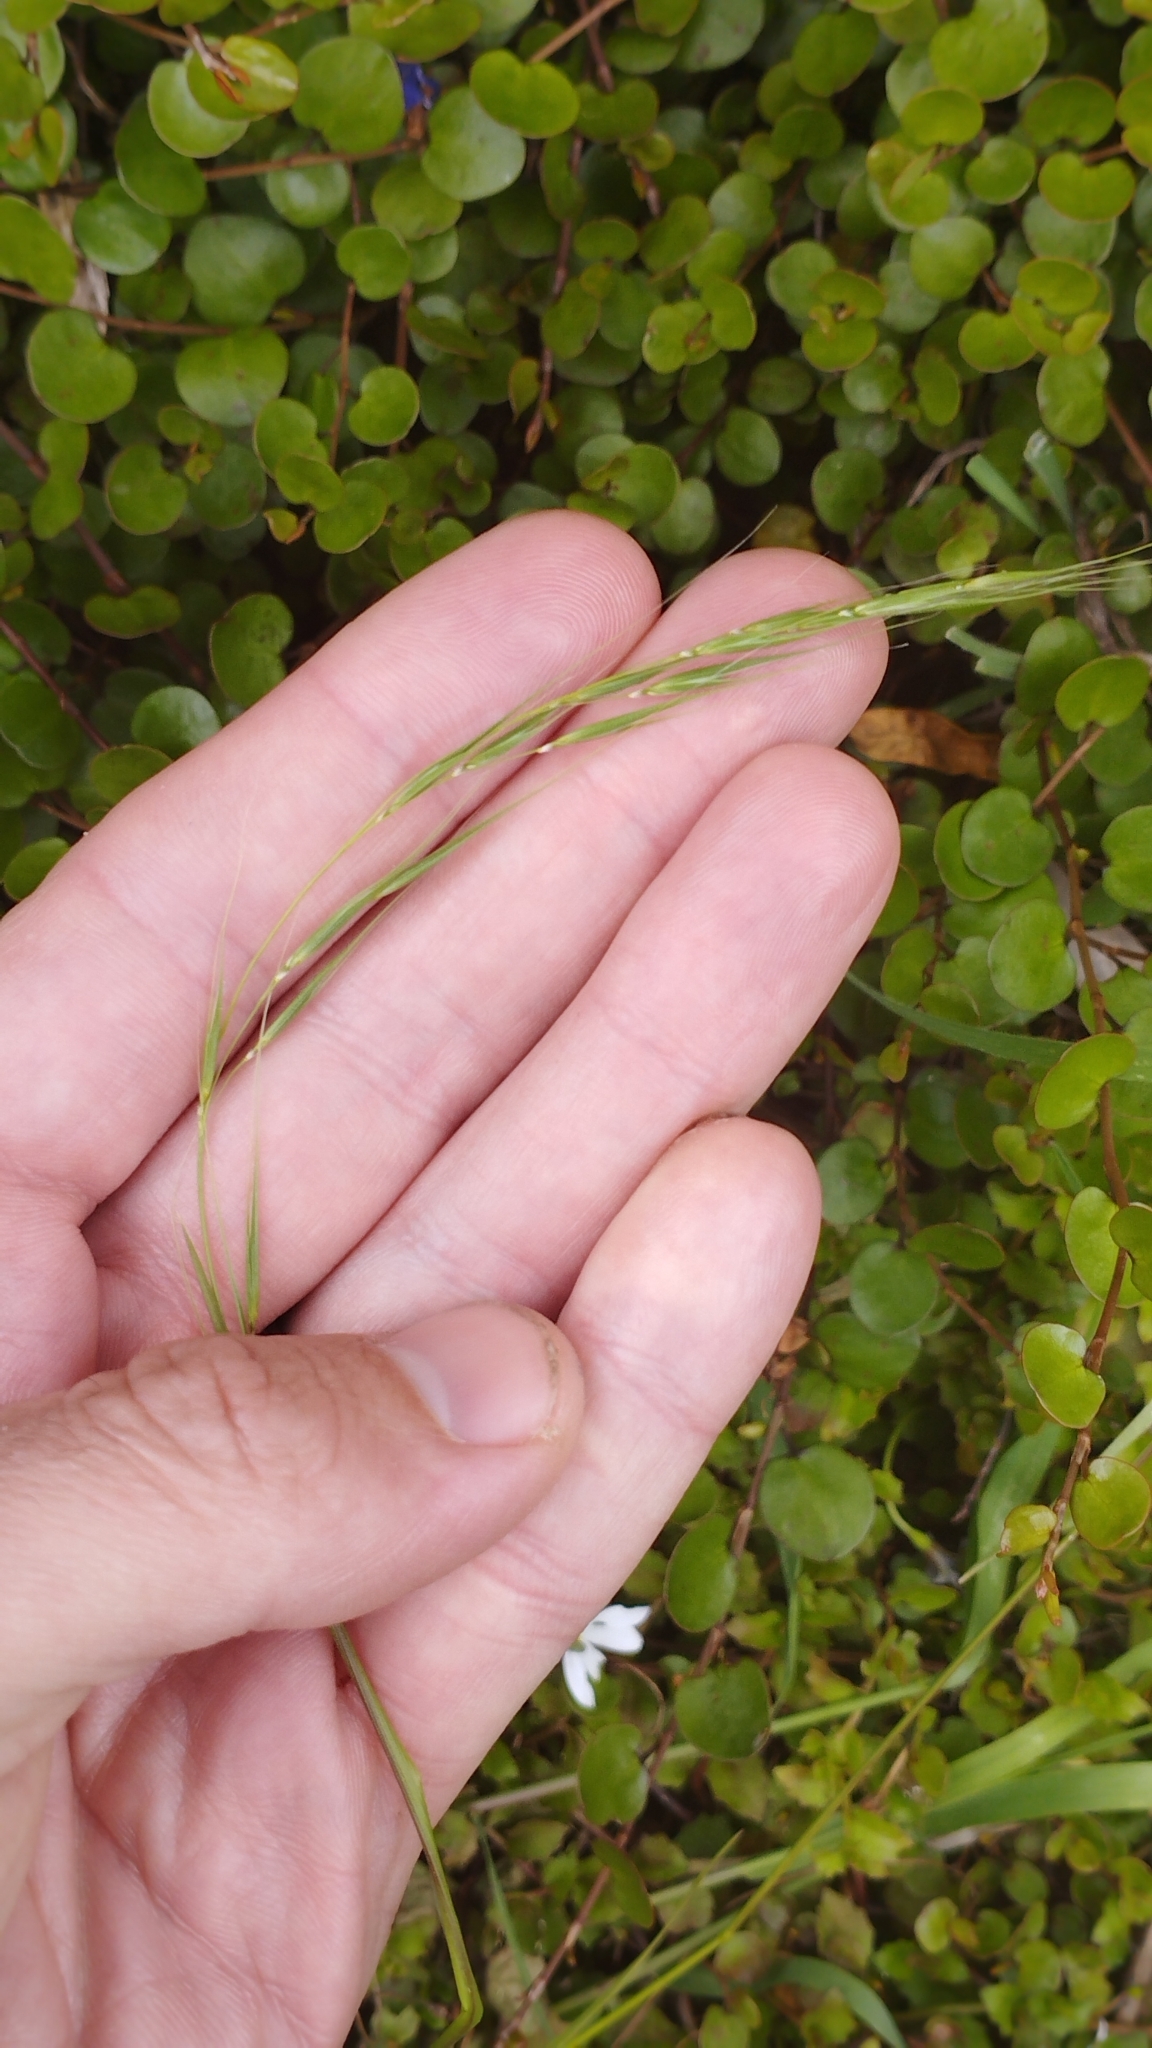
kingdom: Plantae
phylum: Tracheophyta
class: Liliopsida
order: Poales
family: Poaceae
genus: Microlaena
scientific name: Microlaena stipoides
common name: Meadow ricegrass
